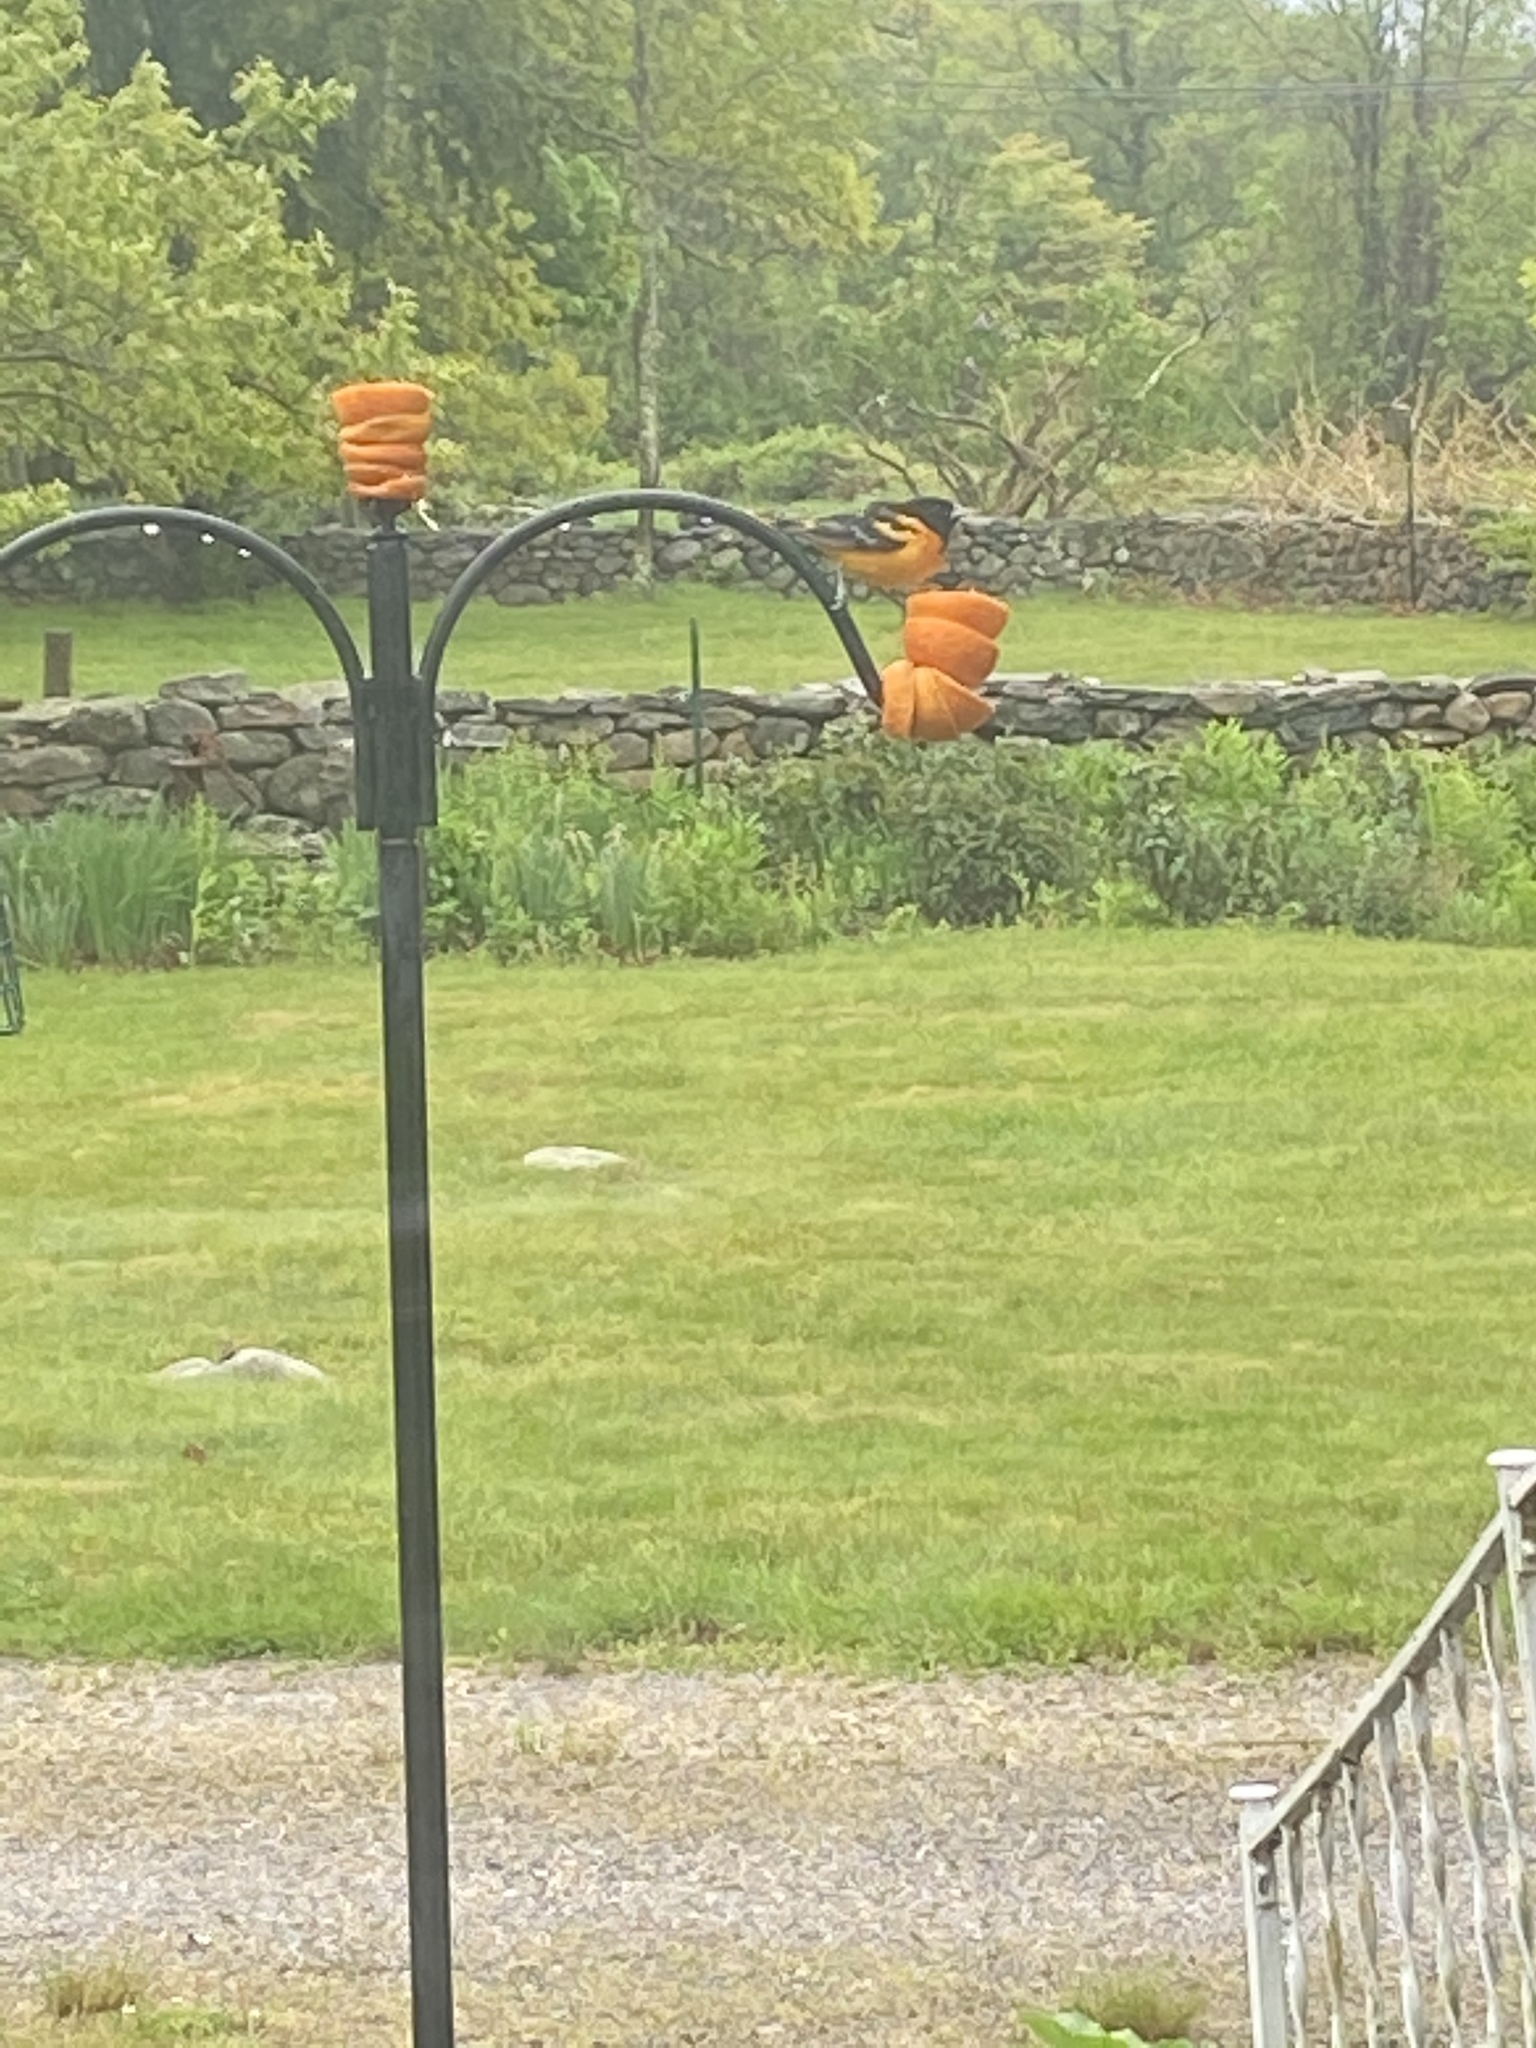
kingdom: Animalia
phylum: Chordata
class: Aves
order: Passeriformes
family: Icteridae
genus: Icterus
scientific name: Icterus galbula
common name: Baltimore oriole
